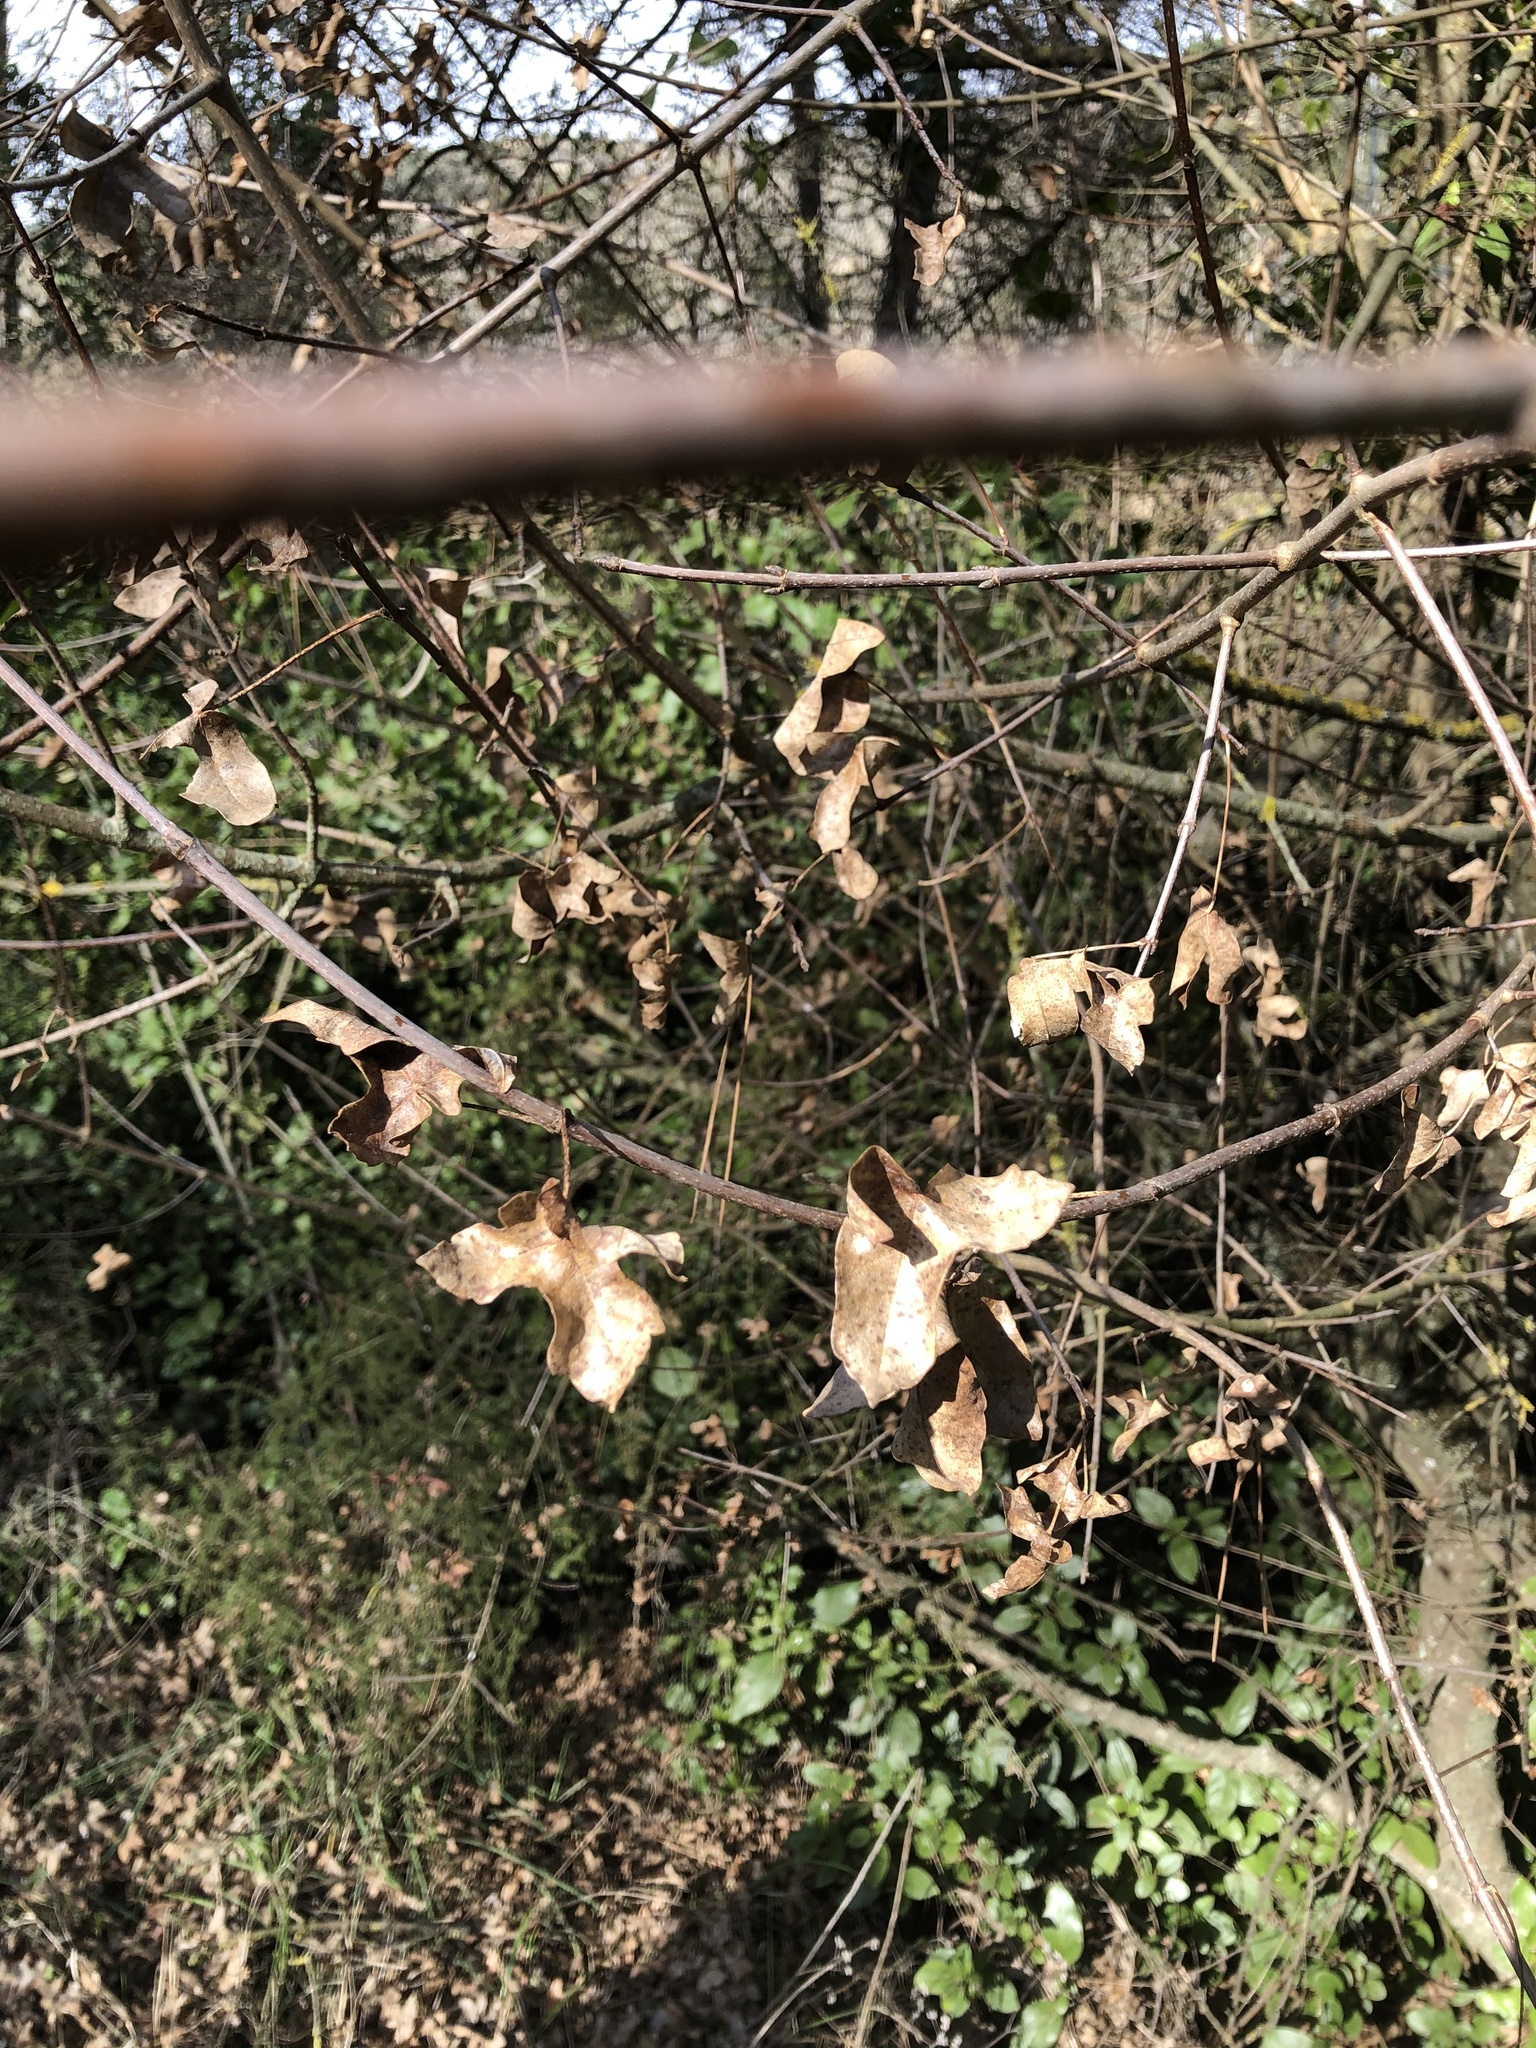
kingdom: Plantae
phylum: Tracheophyta
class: Magnoliopsida
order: Sapindales
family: Sapindaceae
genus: Acer
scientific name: Acer monspessulanum
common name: Montpellier maple
